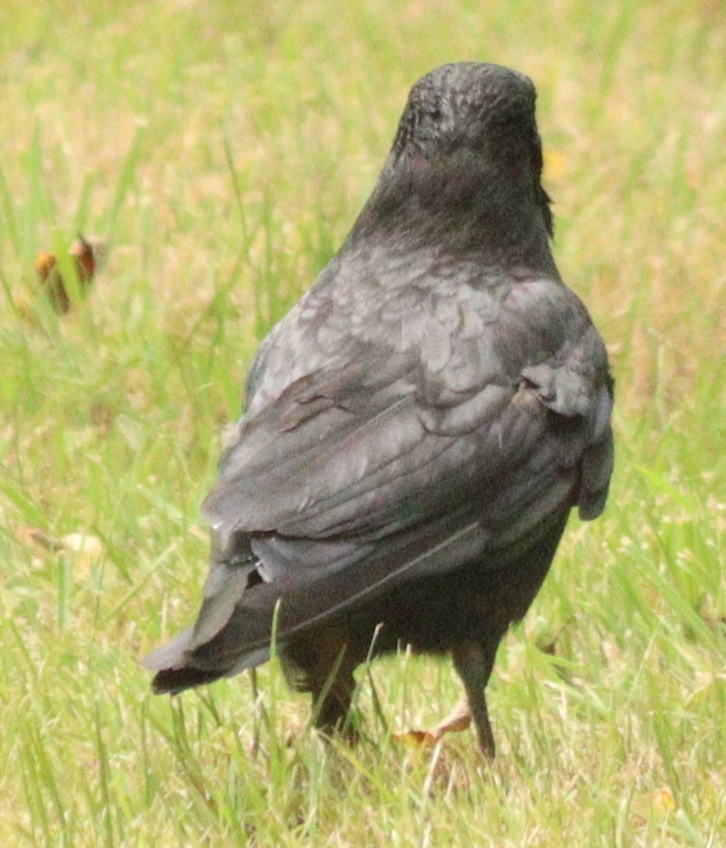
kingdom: Animalia
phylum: Chordata
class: Aves
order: Passeriformes
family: Corvidae
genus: Corvus
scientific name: Corvus corone
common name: Carrion crow
